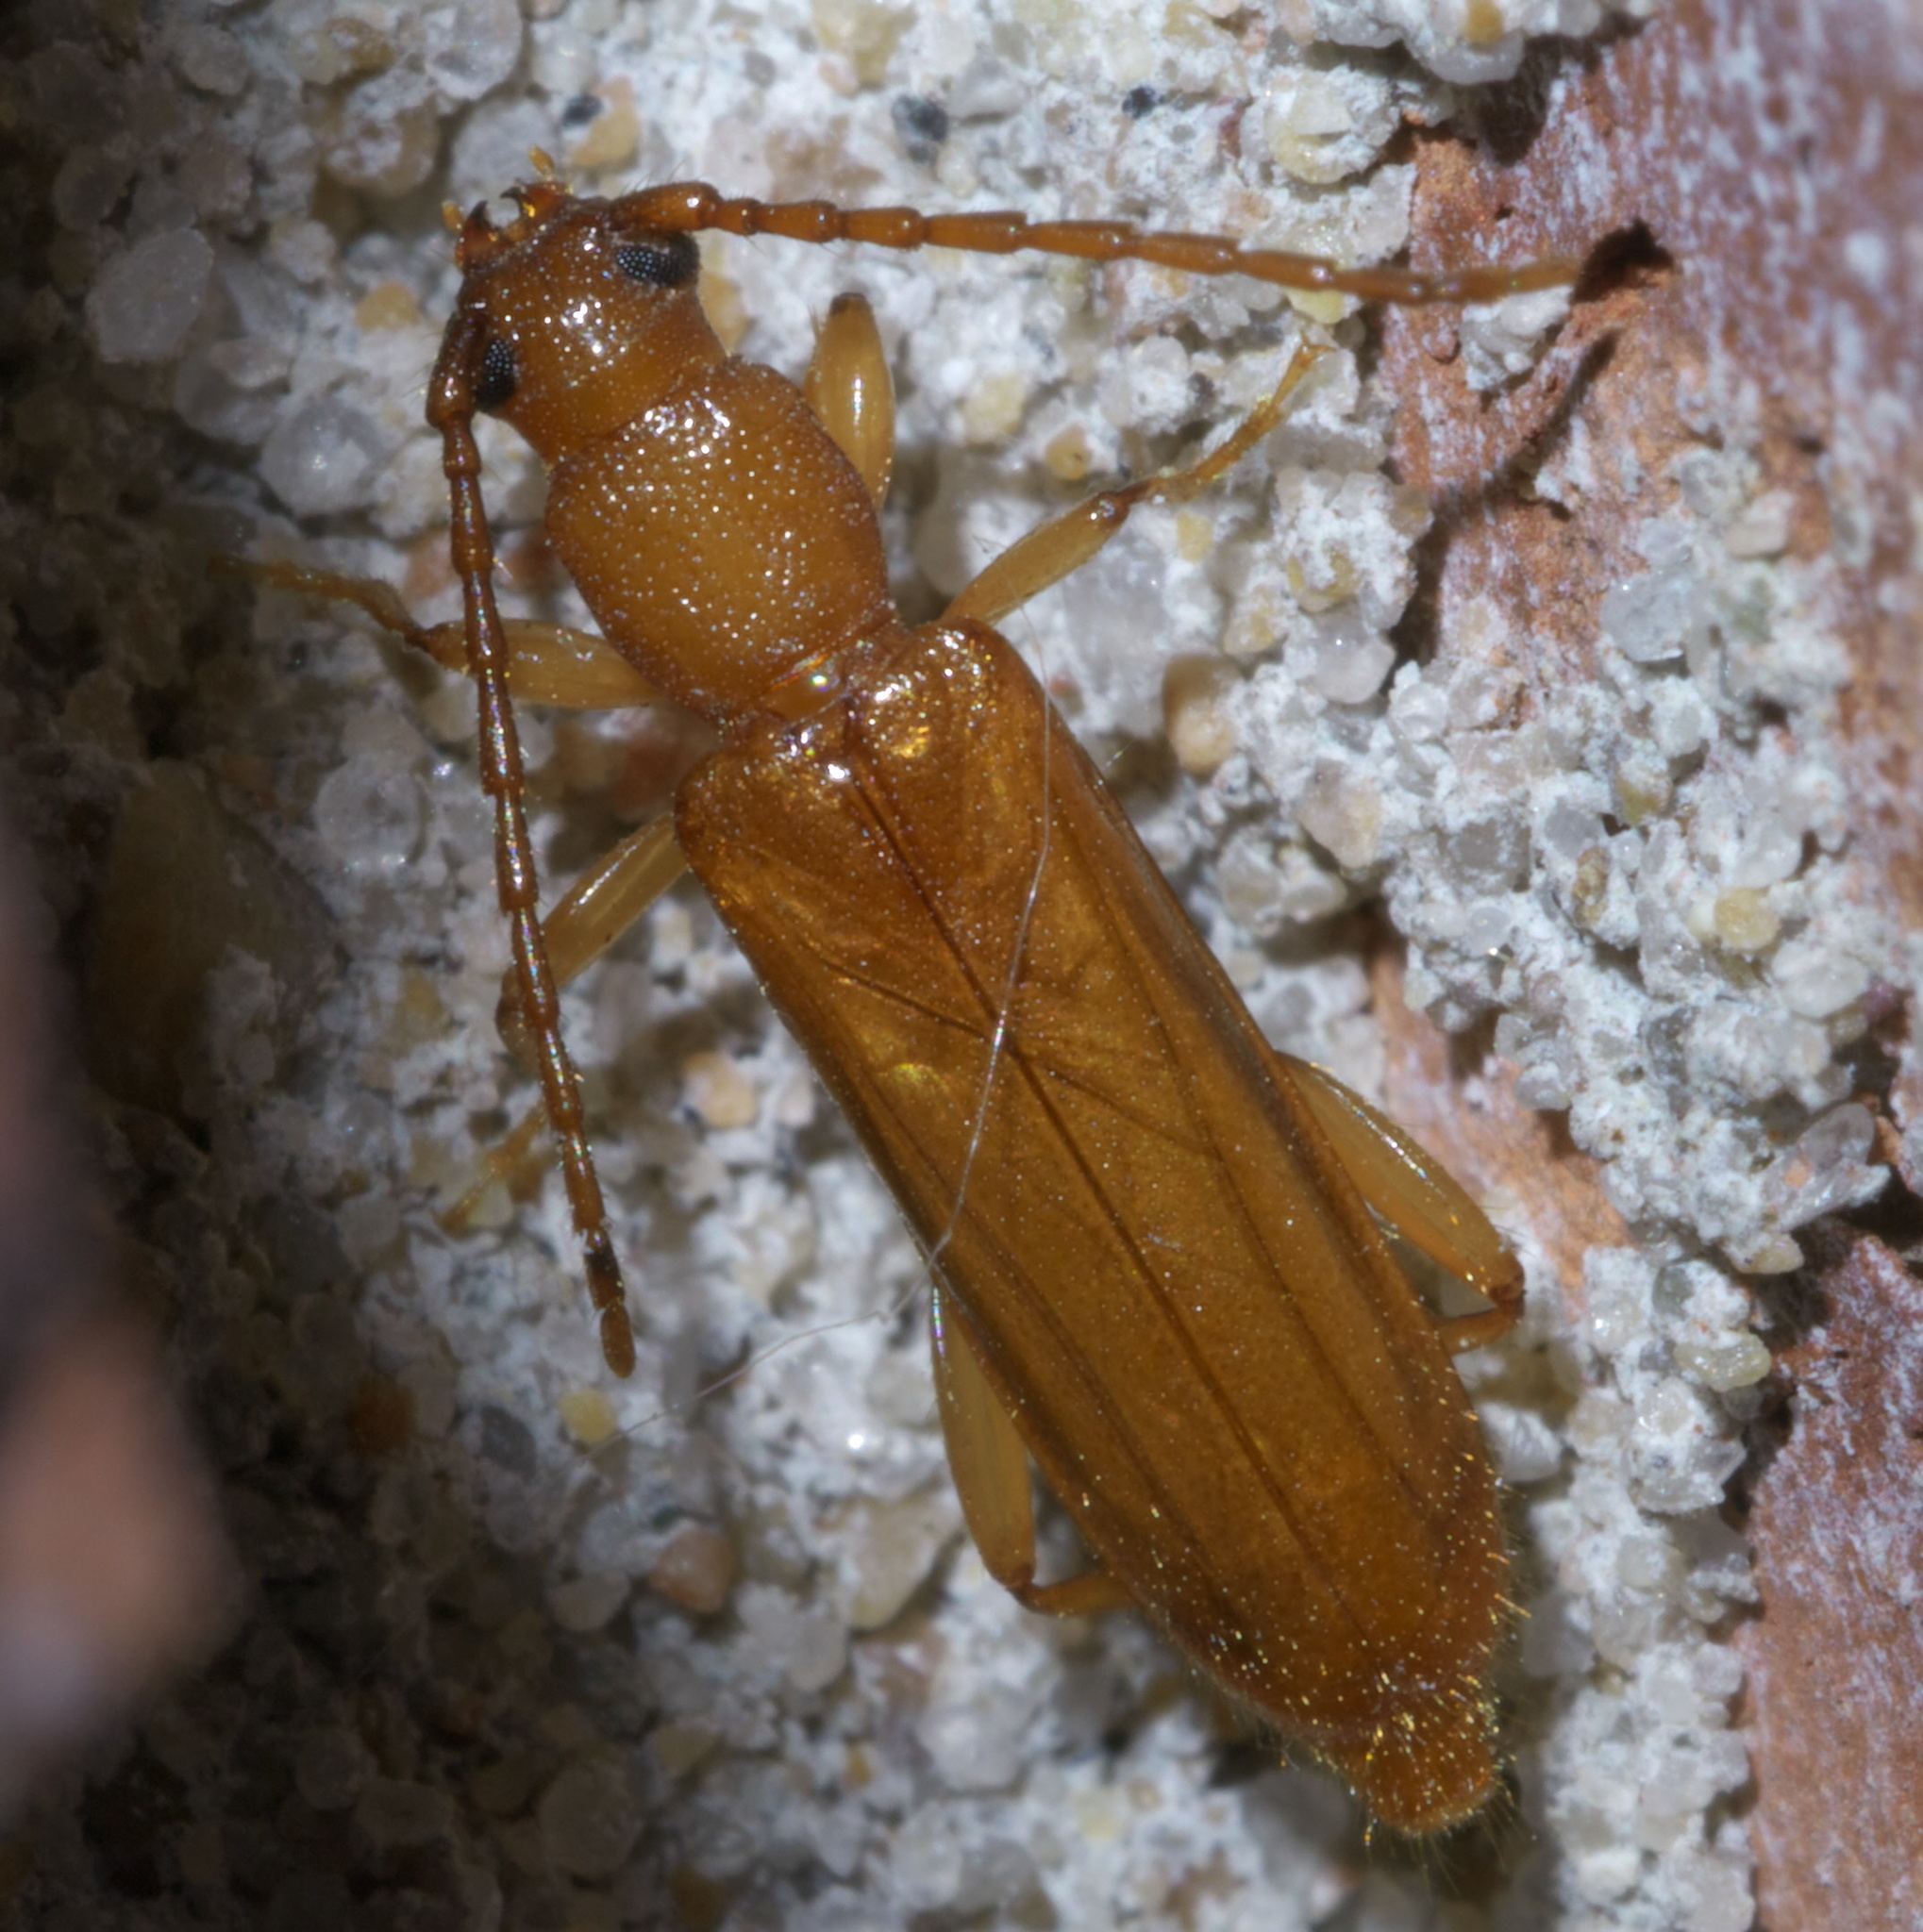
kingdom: Animalia
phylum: Arthropoda
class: Insecta
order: Coleoptera
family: Cerambycidae
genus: Smodicum
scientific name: Smodicum cucujiforme
